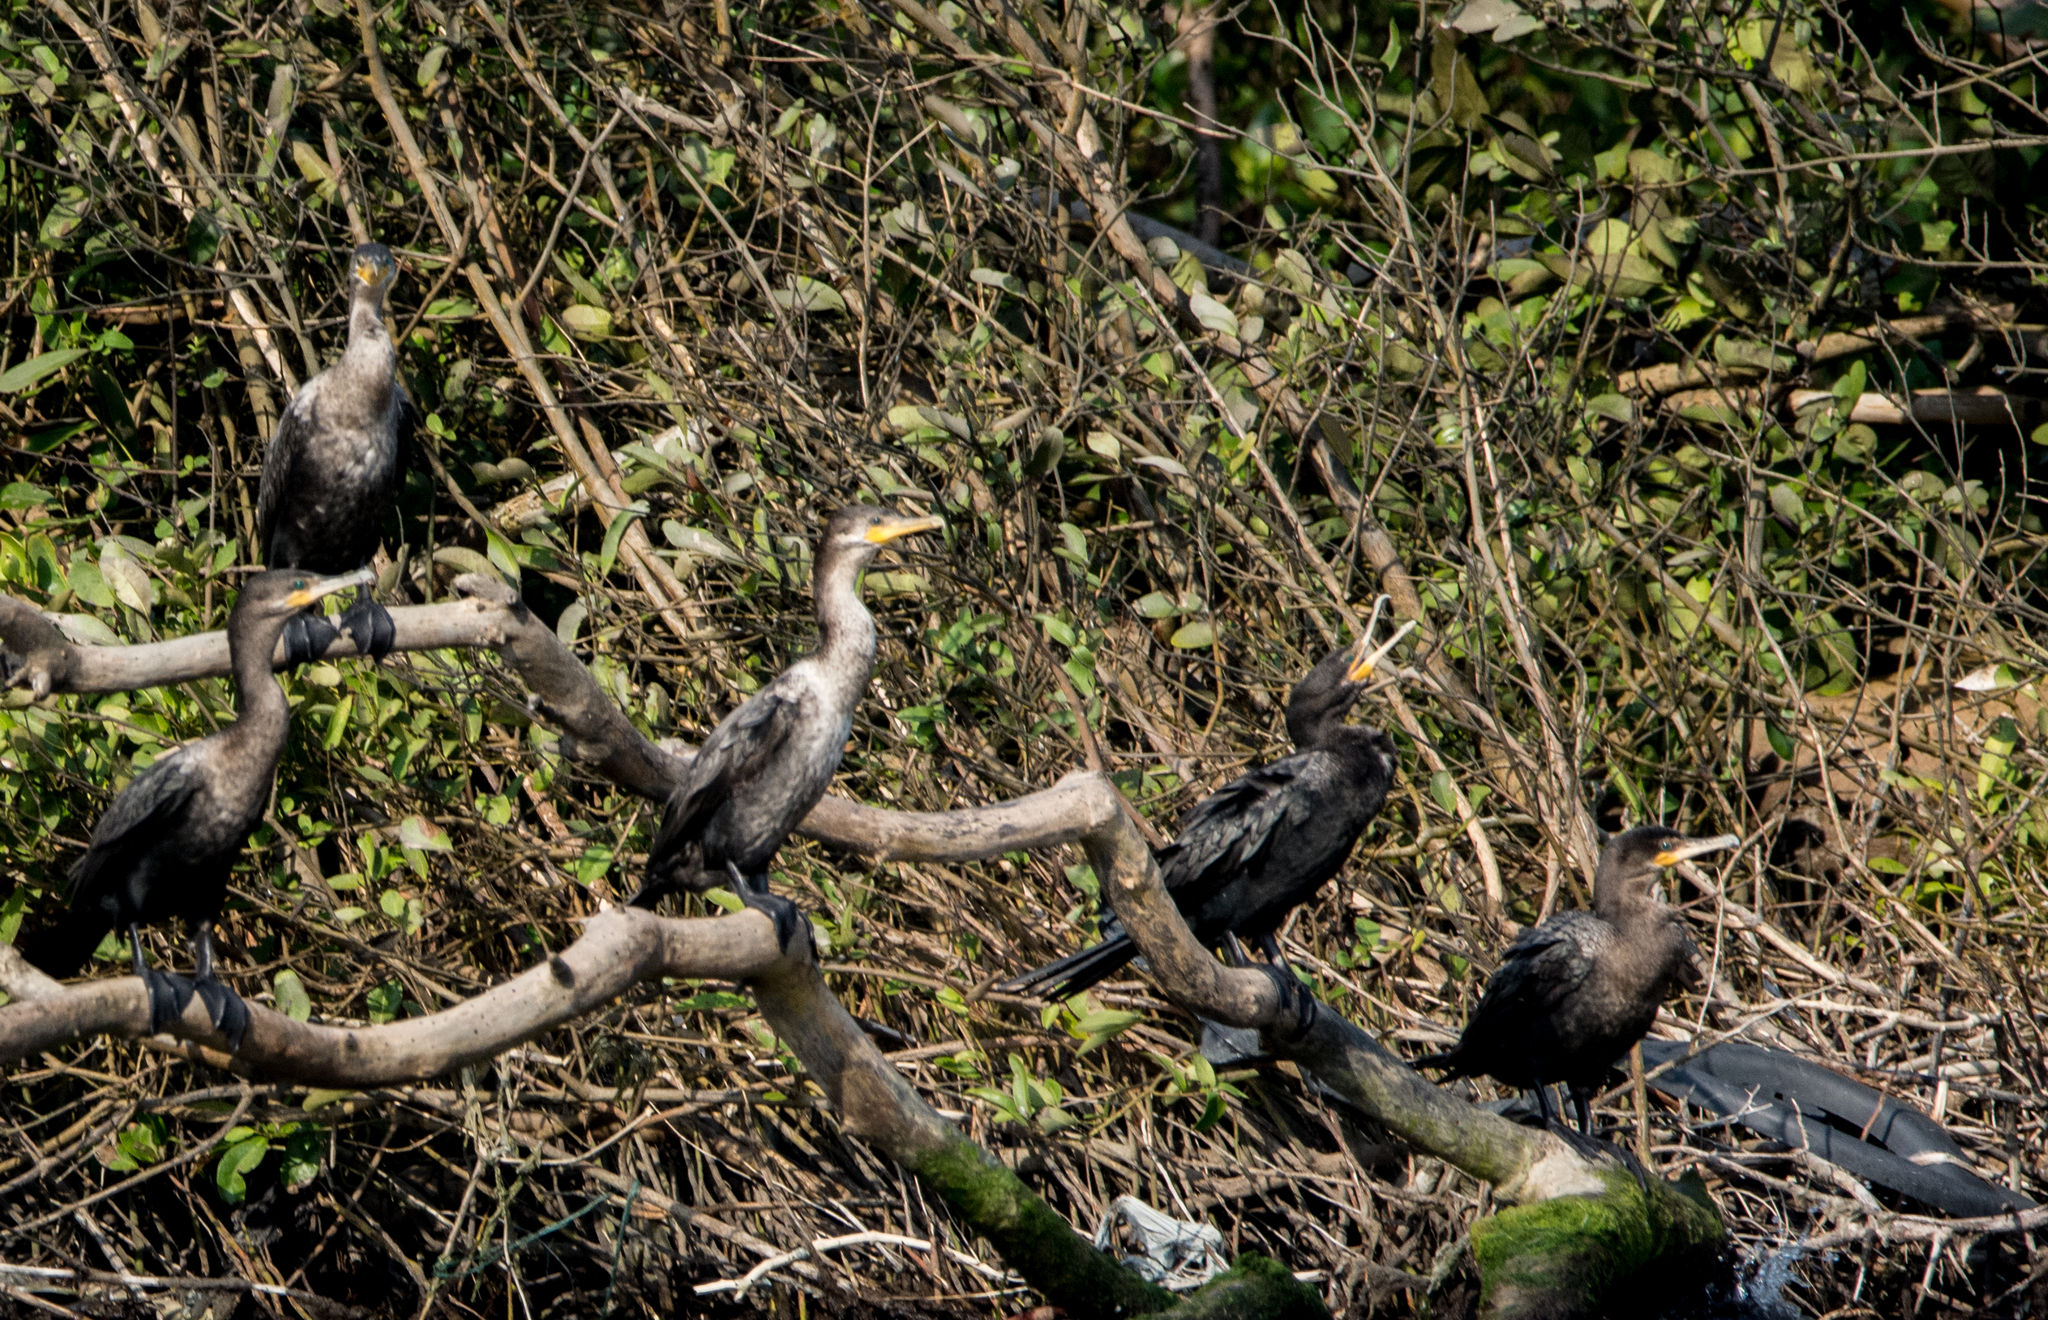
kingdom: Animalia
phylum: Chordata
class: Aves
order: Suliformes
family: Phalacrocoracidae
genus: Phalacrocorax
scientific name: Phalacrocorax brasilianus
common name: Neotropic cormorant
